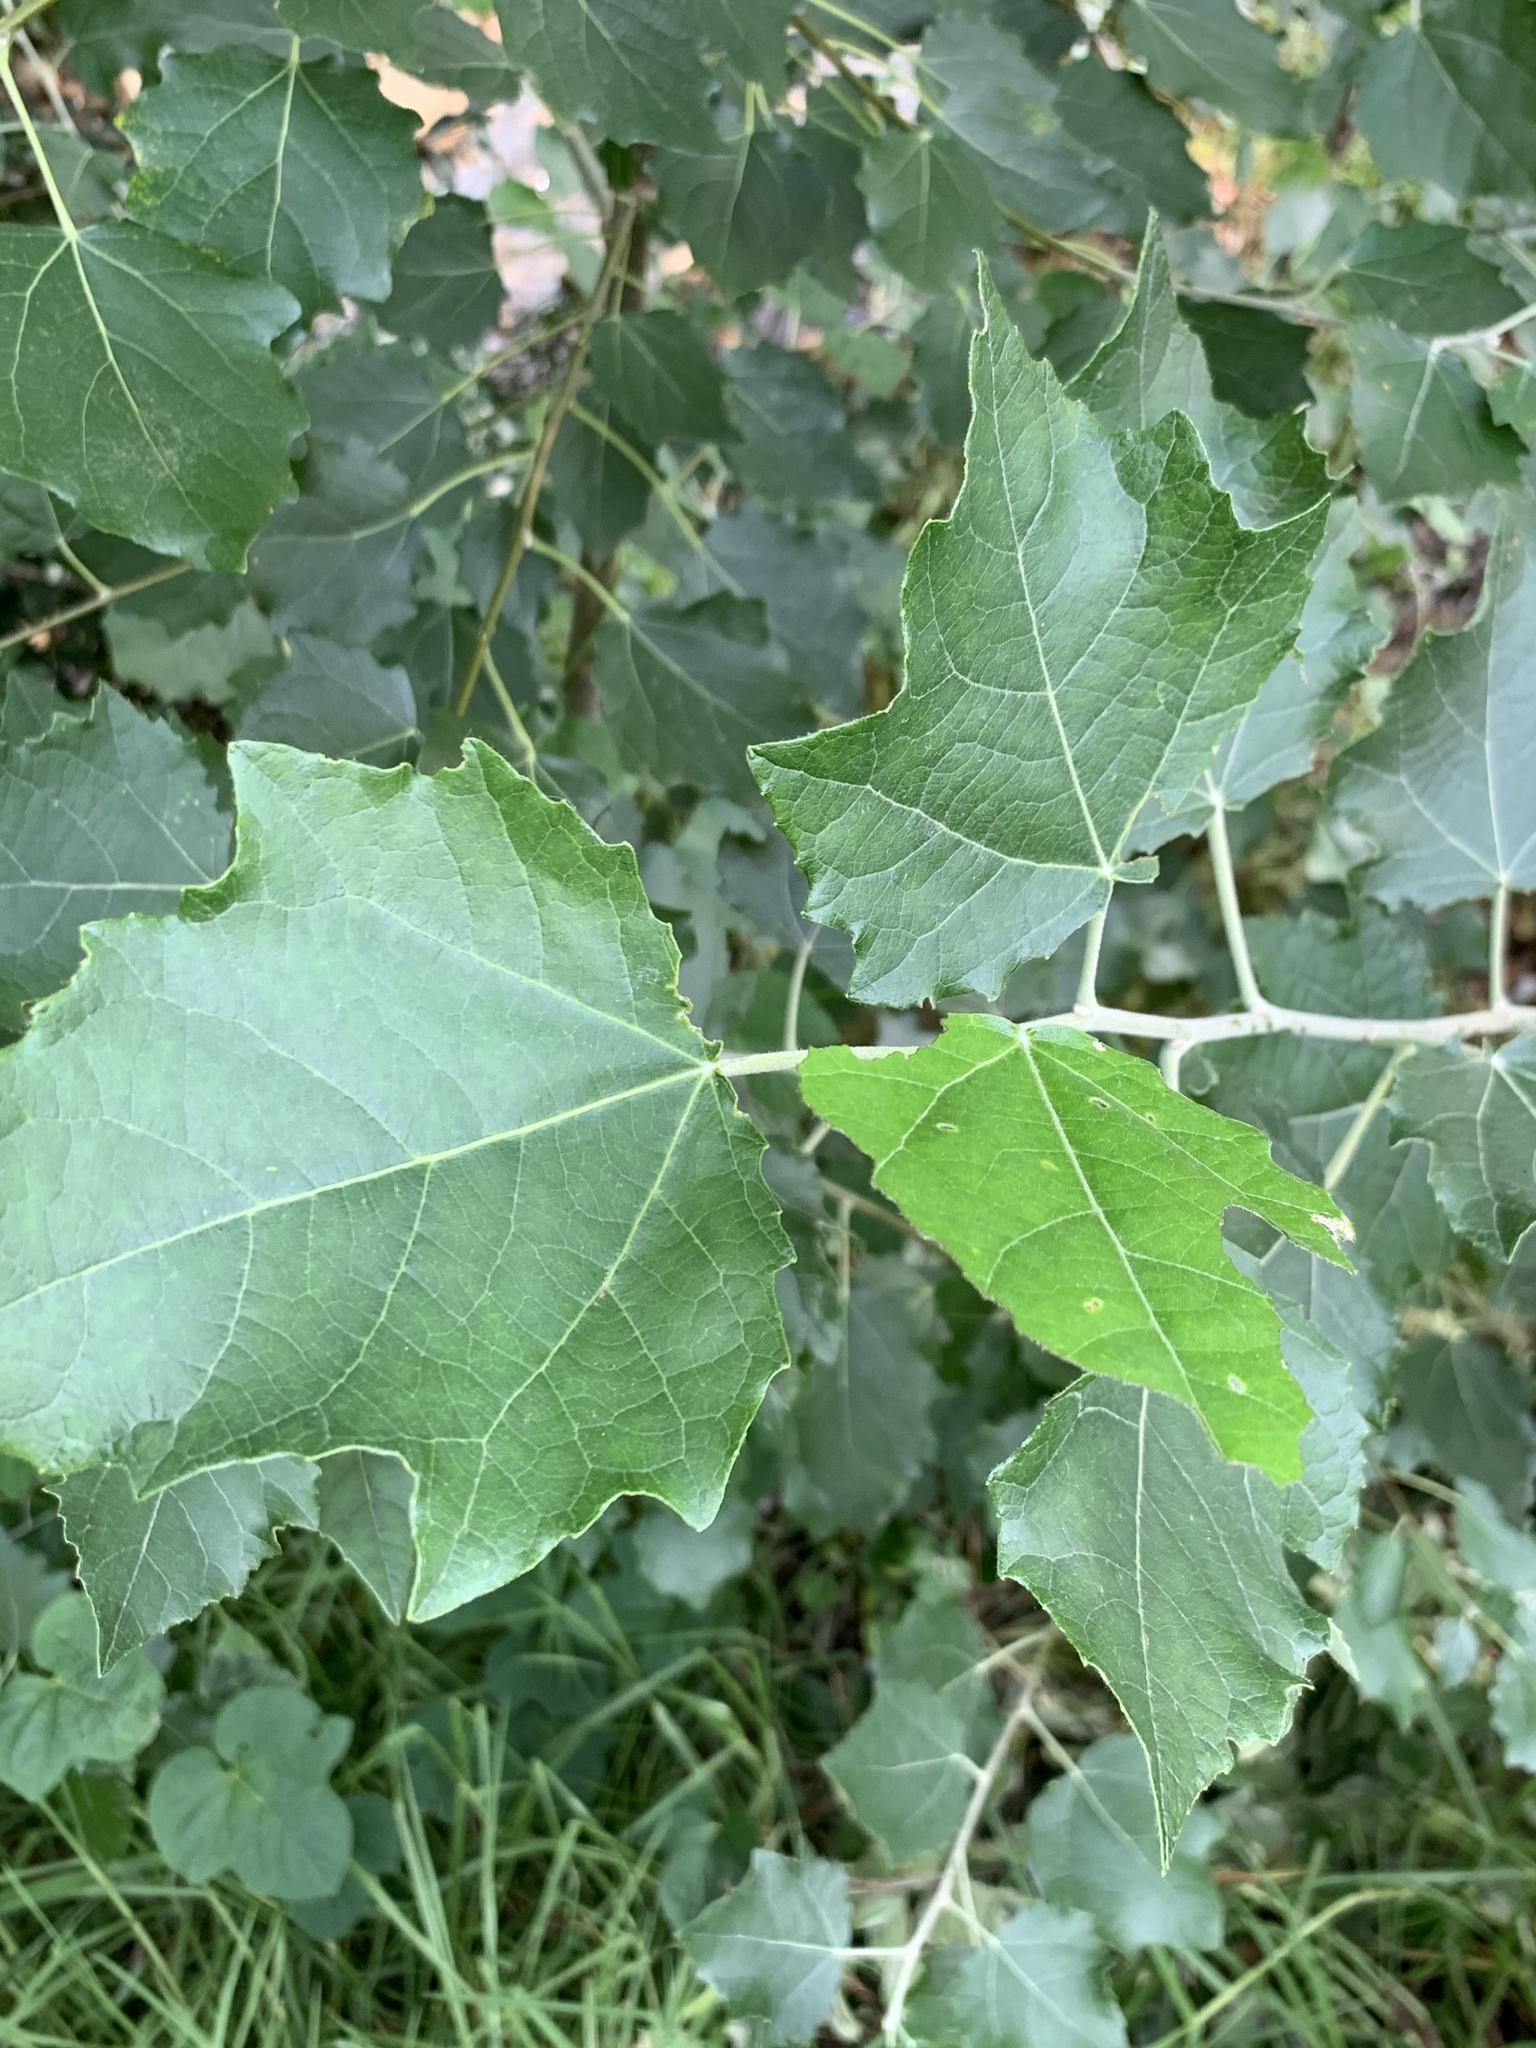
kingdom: Plantae
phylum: Tracheophyta
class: Magnoliopsida
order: Malpighiales
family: Salicaceae
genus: Populus
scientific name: Populus canescens
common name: Gray poplar
